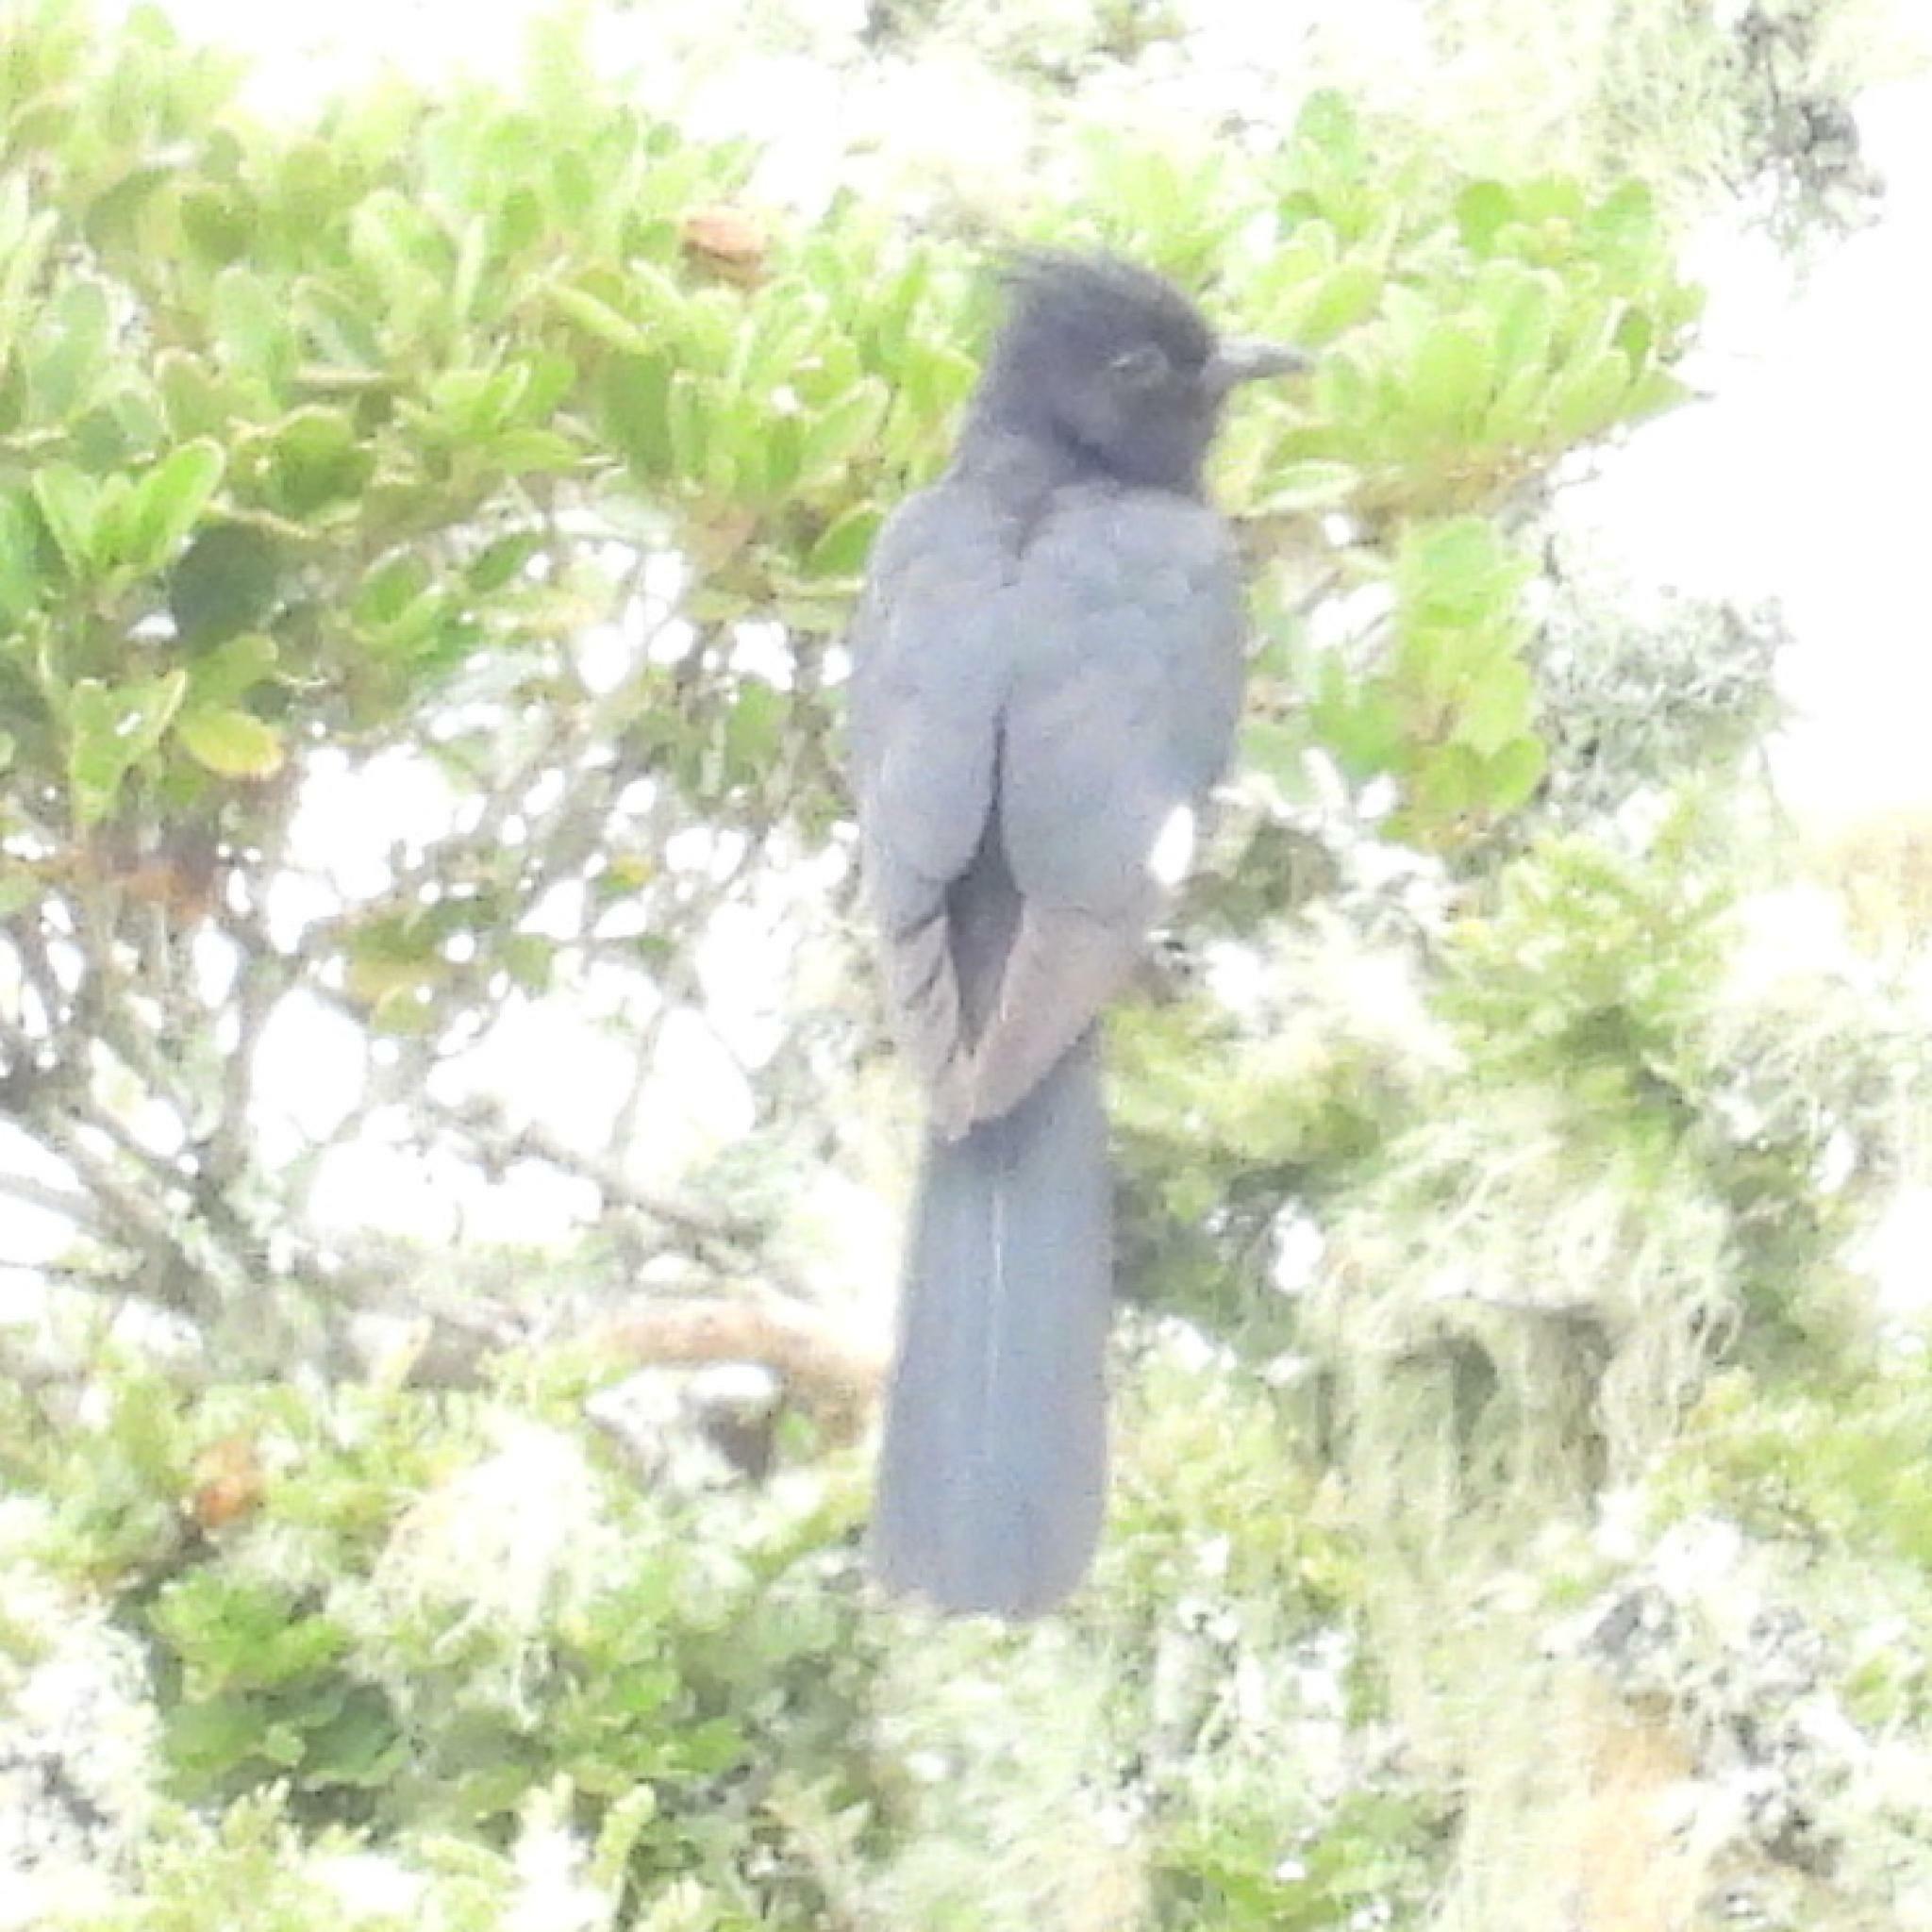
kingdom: Animalia
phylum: Chordata
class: Aves
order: Cuculiformes
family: Cuculidae
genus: Clamator
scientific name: Clamator jacobinus
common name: Jacobin cuckoo
